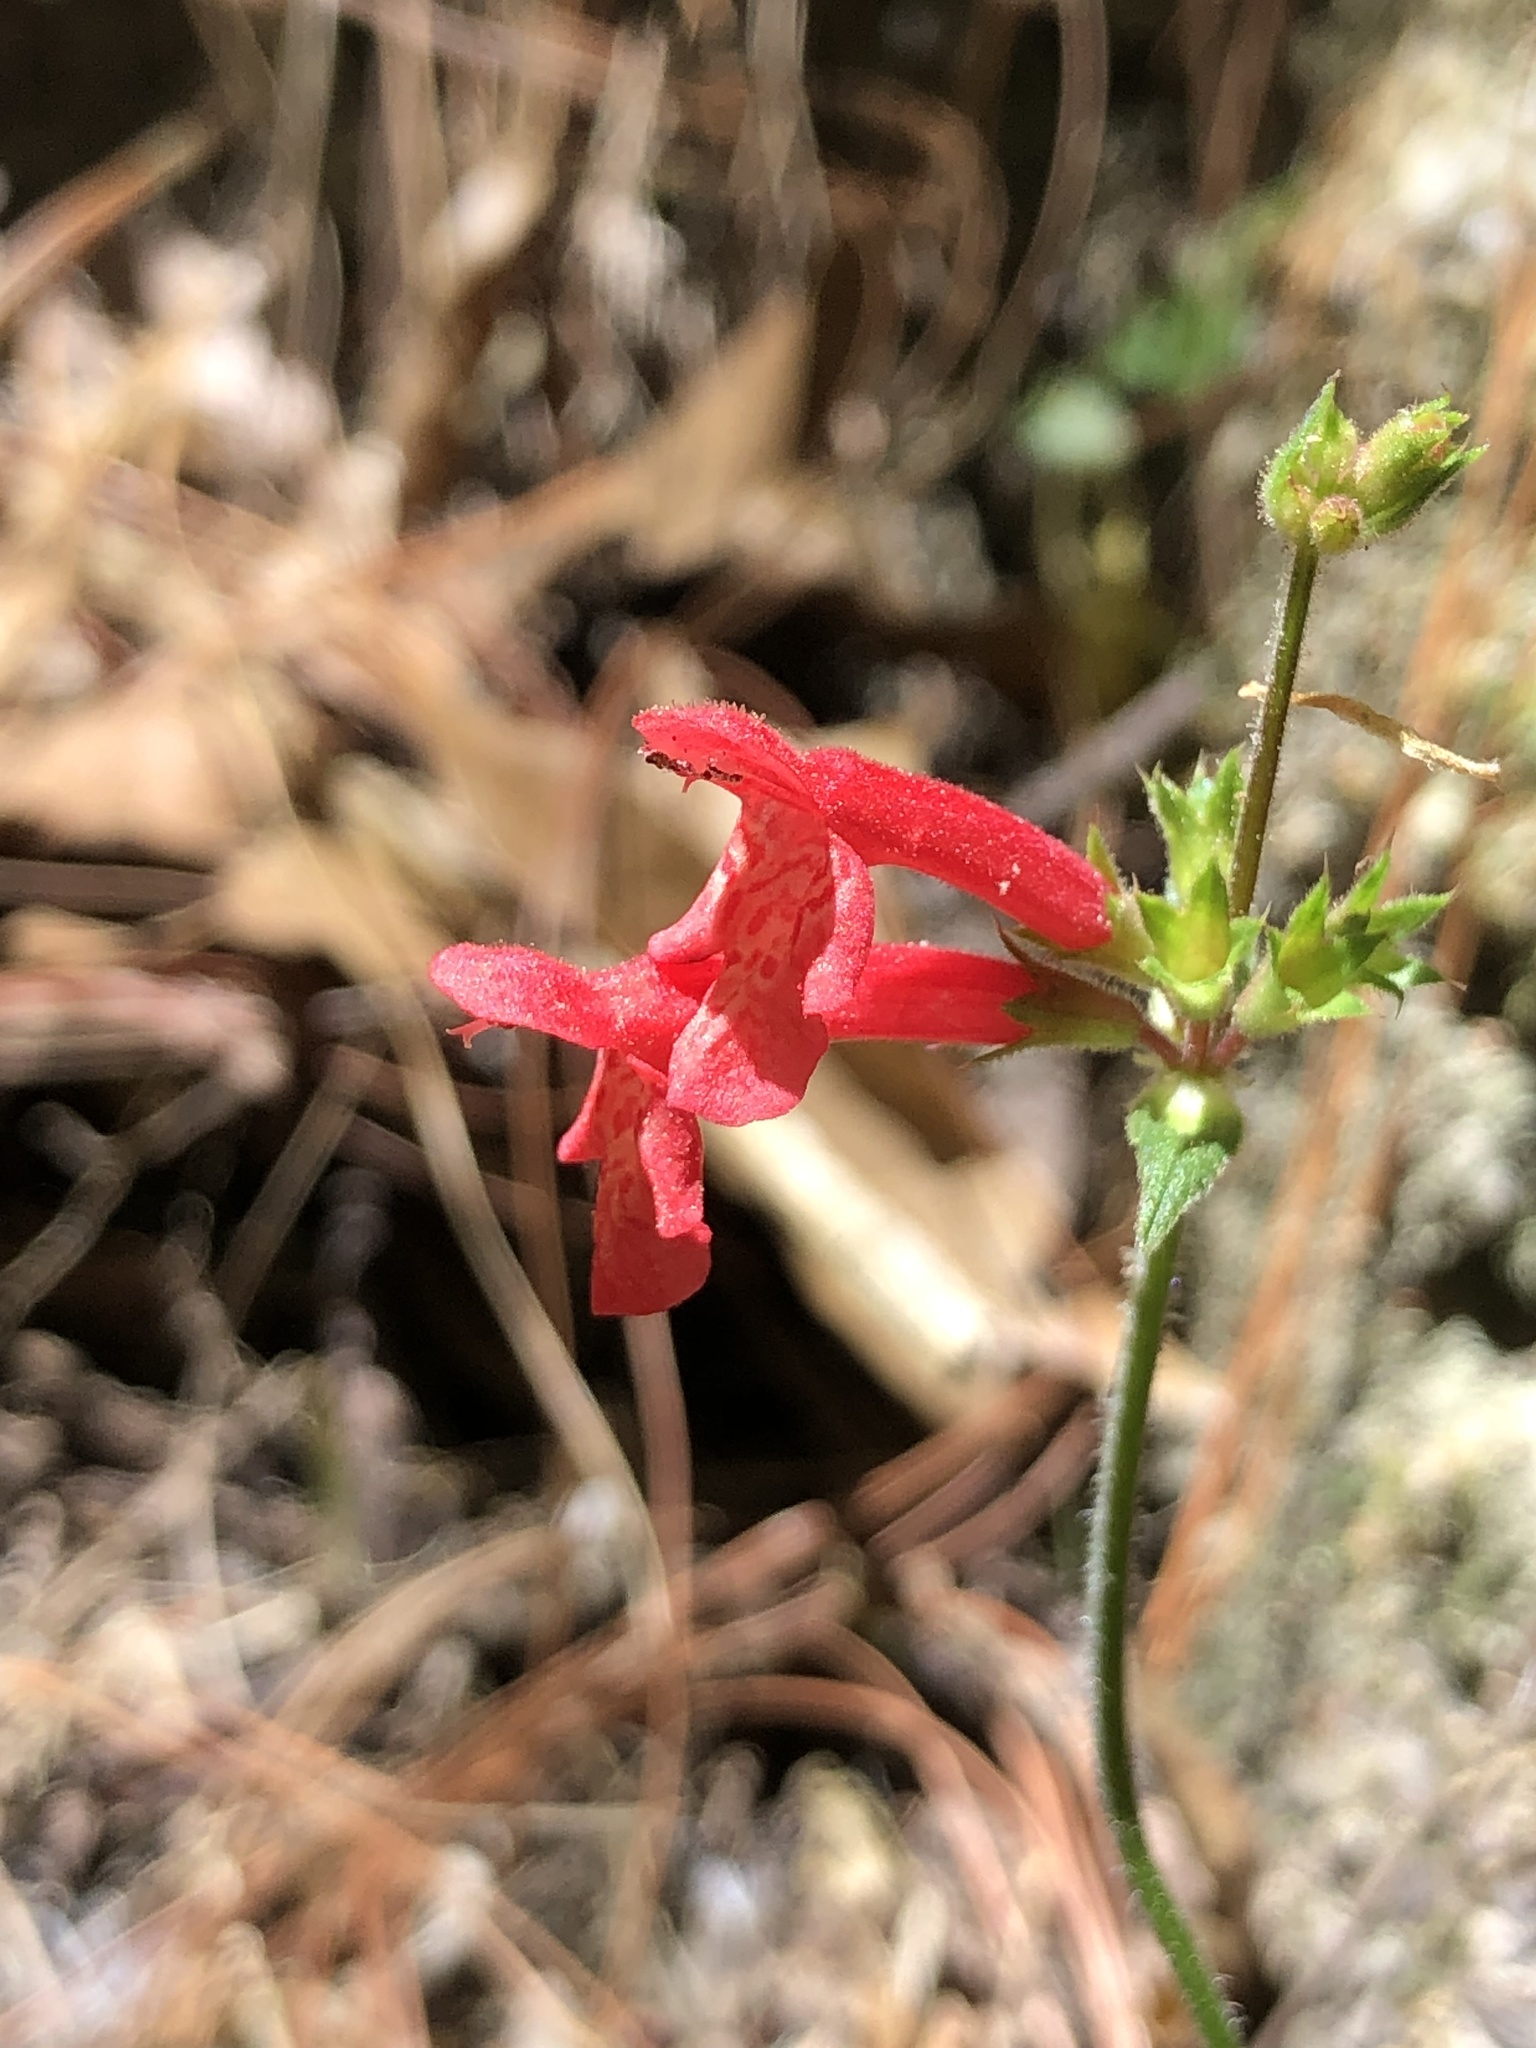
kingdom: Plantae
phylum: Tracheophyta
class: Magnoliopsida
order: Lamiales
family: Lamiaceae
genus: Stachys
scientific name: Stachys coccinea
